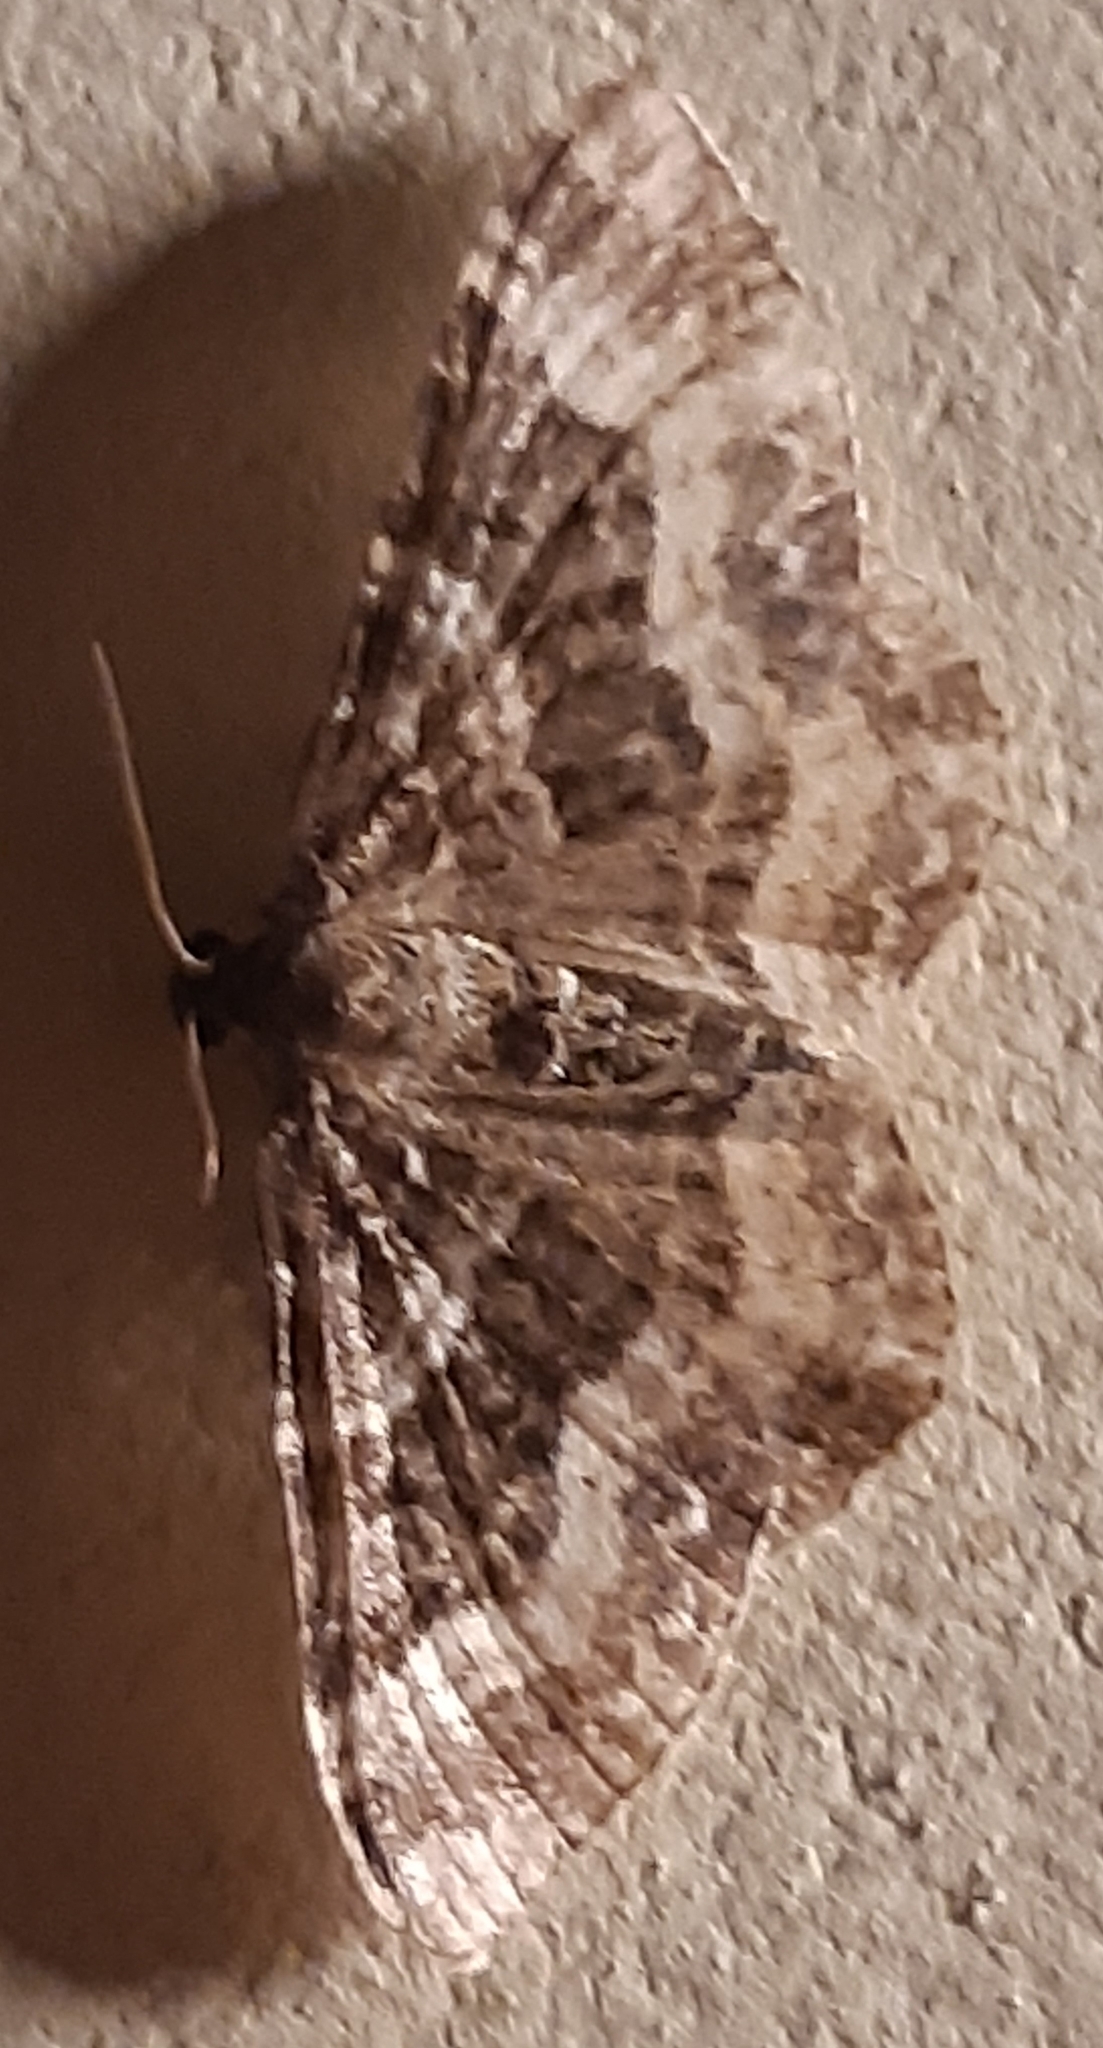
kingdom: Animalia
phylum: Arthropoda
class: Insecta
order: Lepidoptera
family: Geometridae
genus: Epirrhoe
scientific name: Epirrhoe alternata
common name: Common carpet
